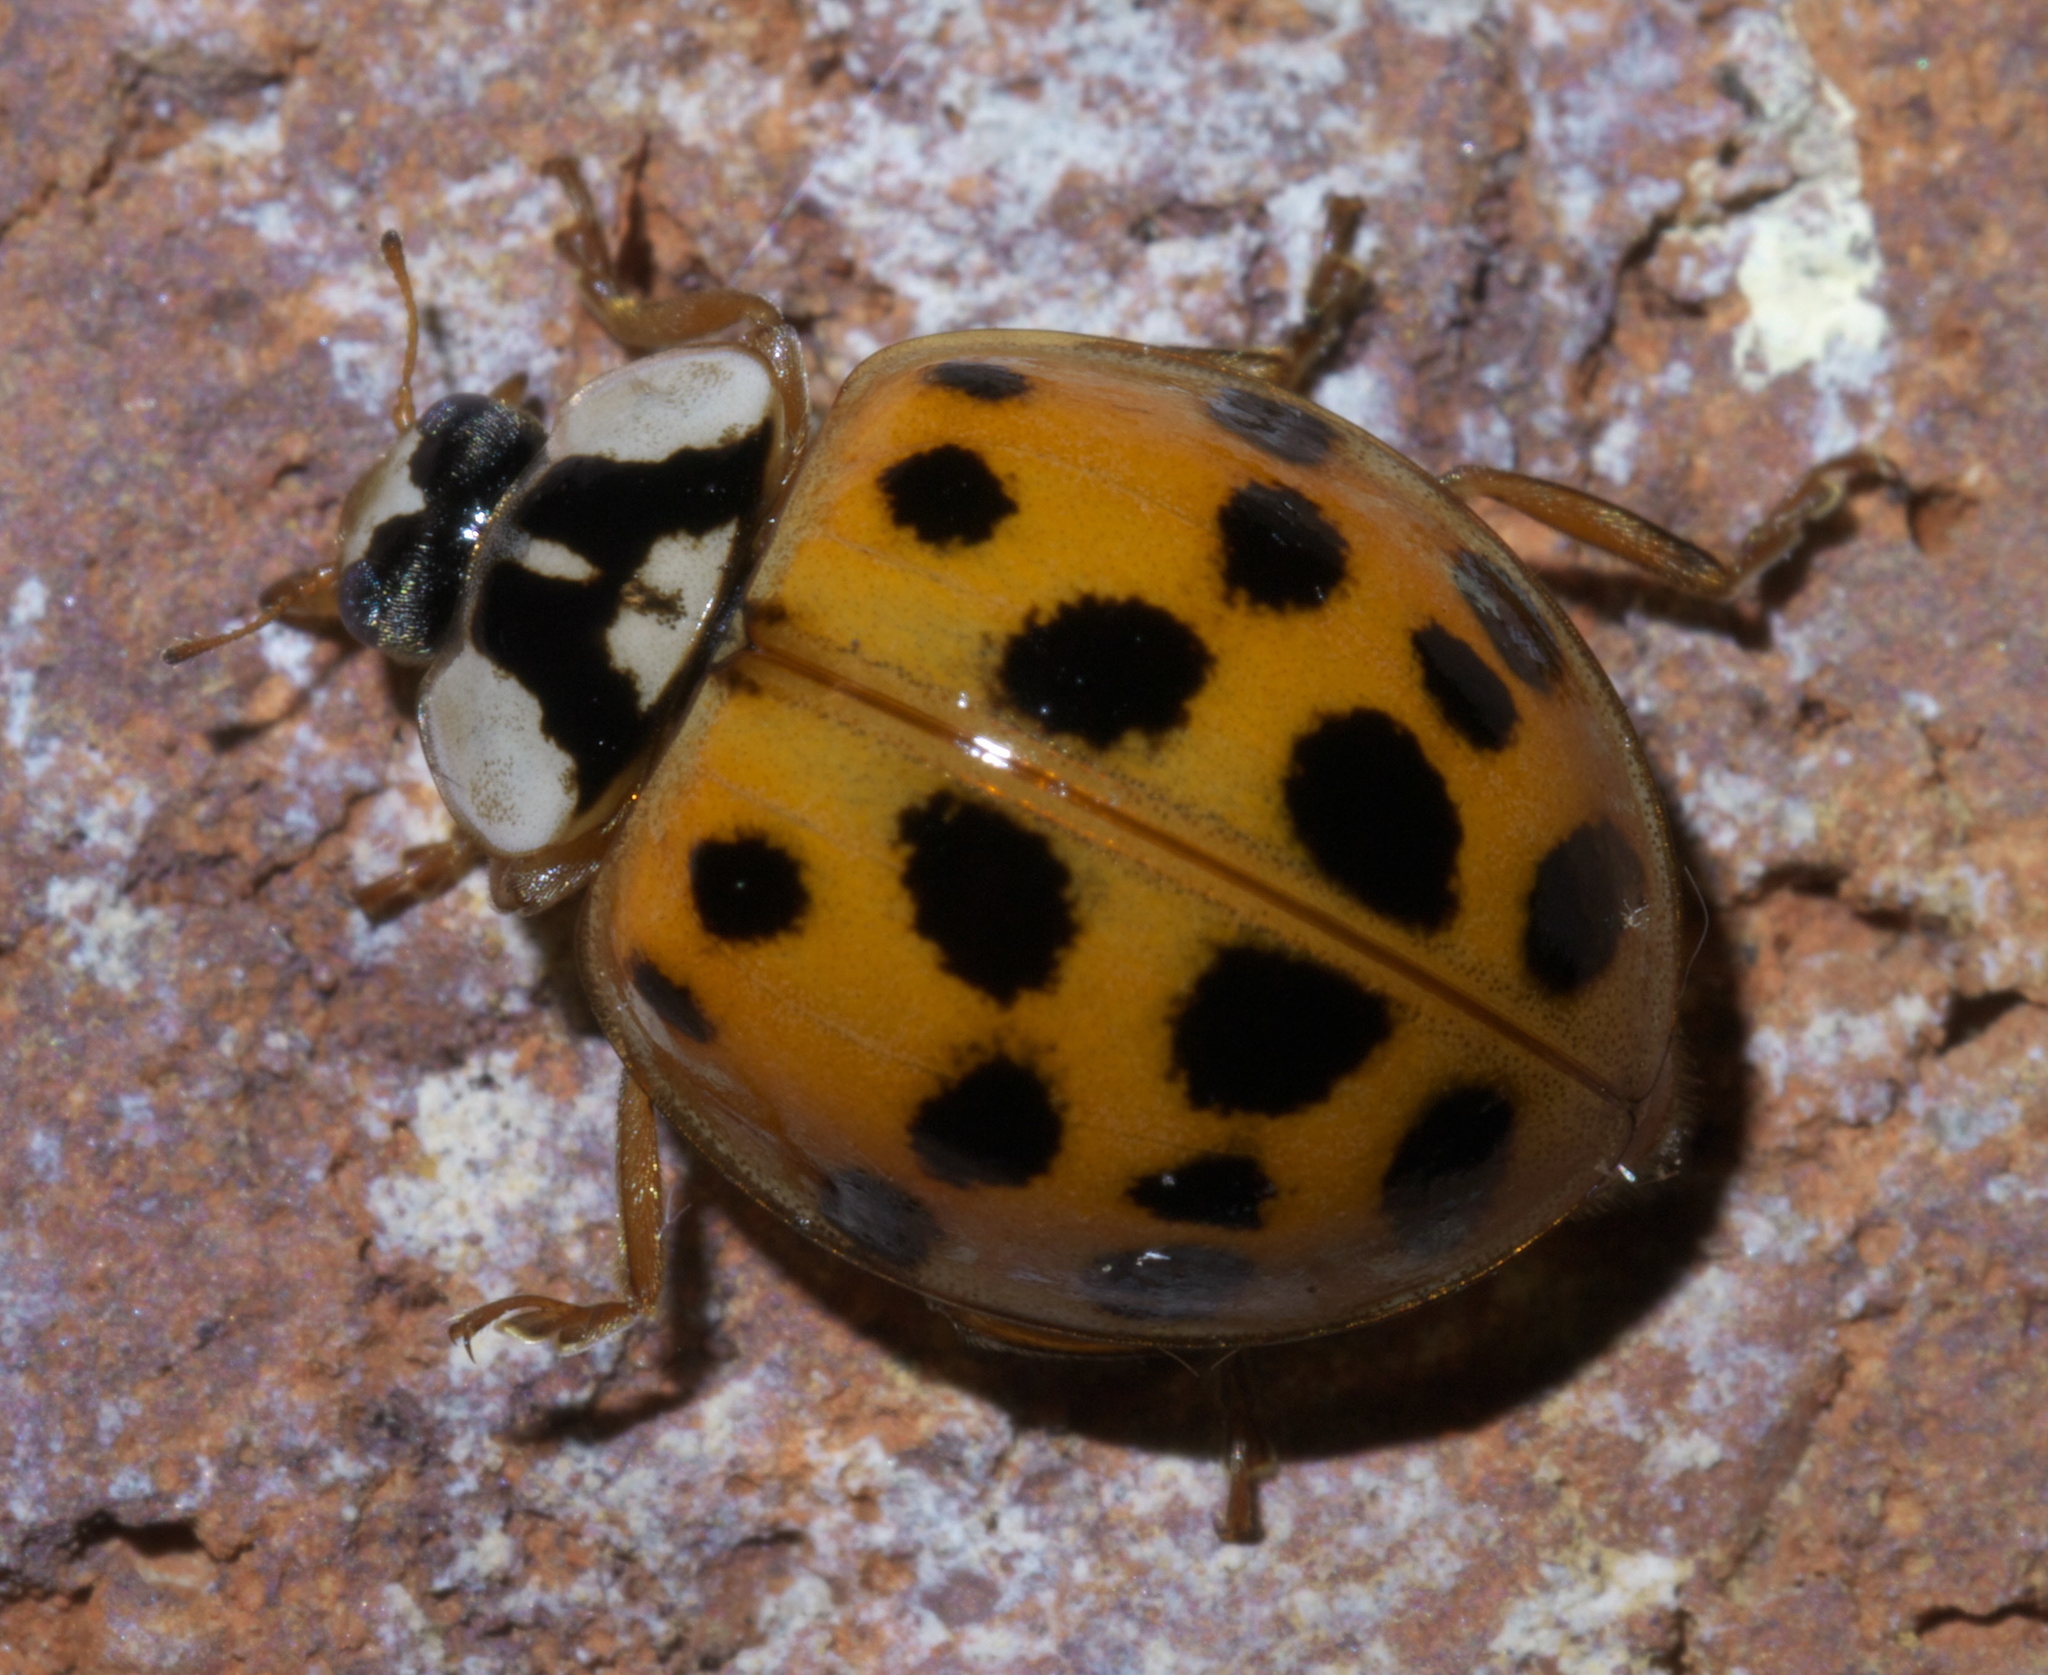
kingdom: Animalia
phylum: Arthropoda
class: Insecta
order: Coleoptera
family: Coccinellidae
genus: Harmonia
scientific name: Harmonia axyridis
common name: Harlequin ladybird
